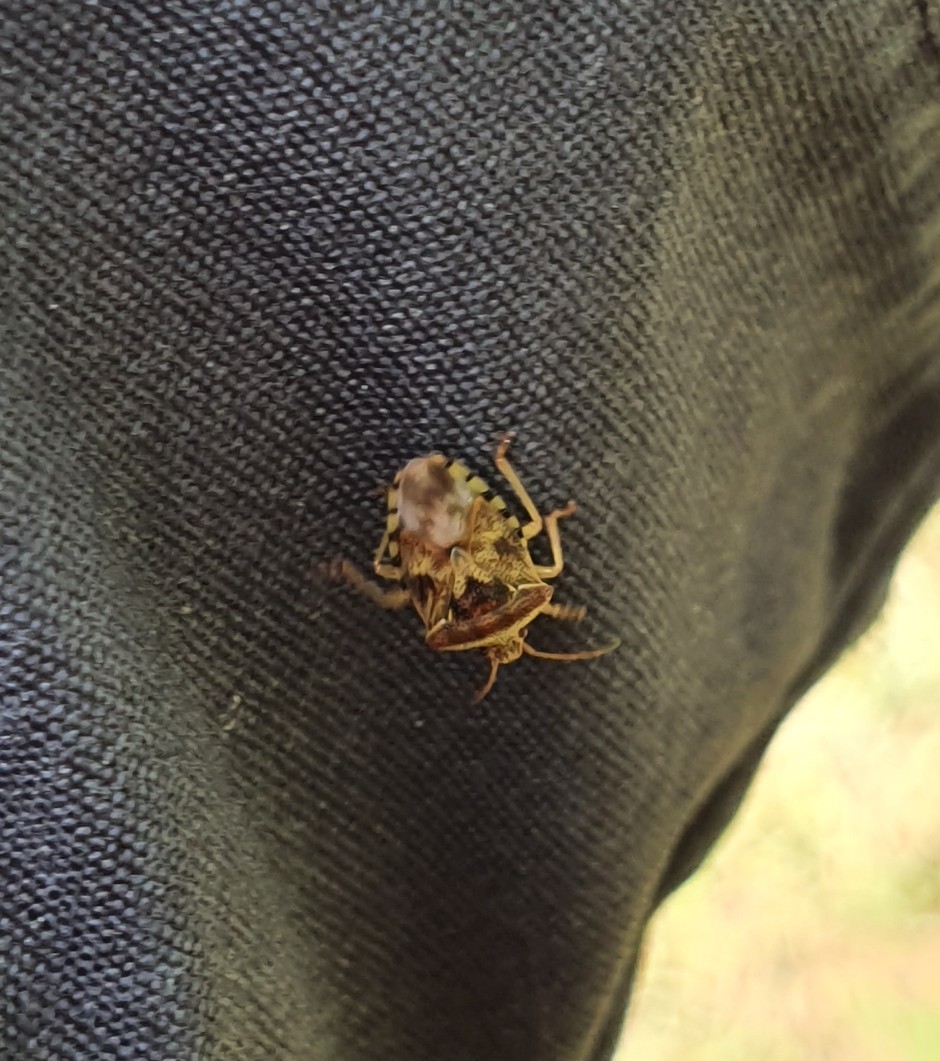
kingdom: Animalia
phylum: Arthropoda
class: Insecta
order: Hemiptera
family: Acanthosomatidae
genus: Elasmucha
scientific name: Elasmucha grisea
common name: Parent bug
